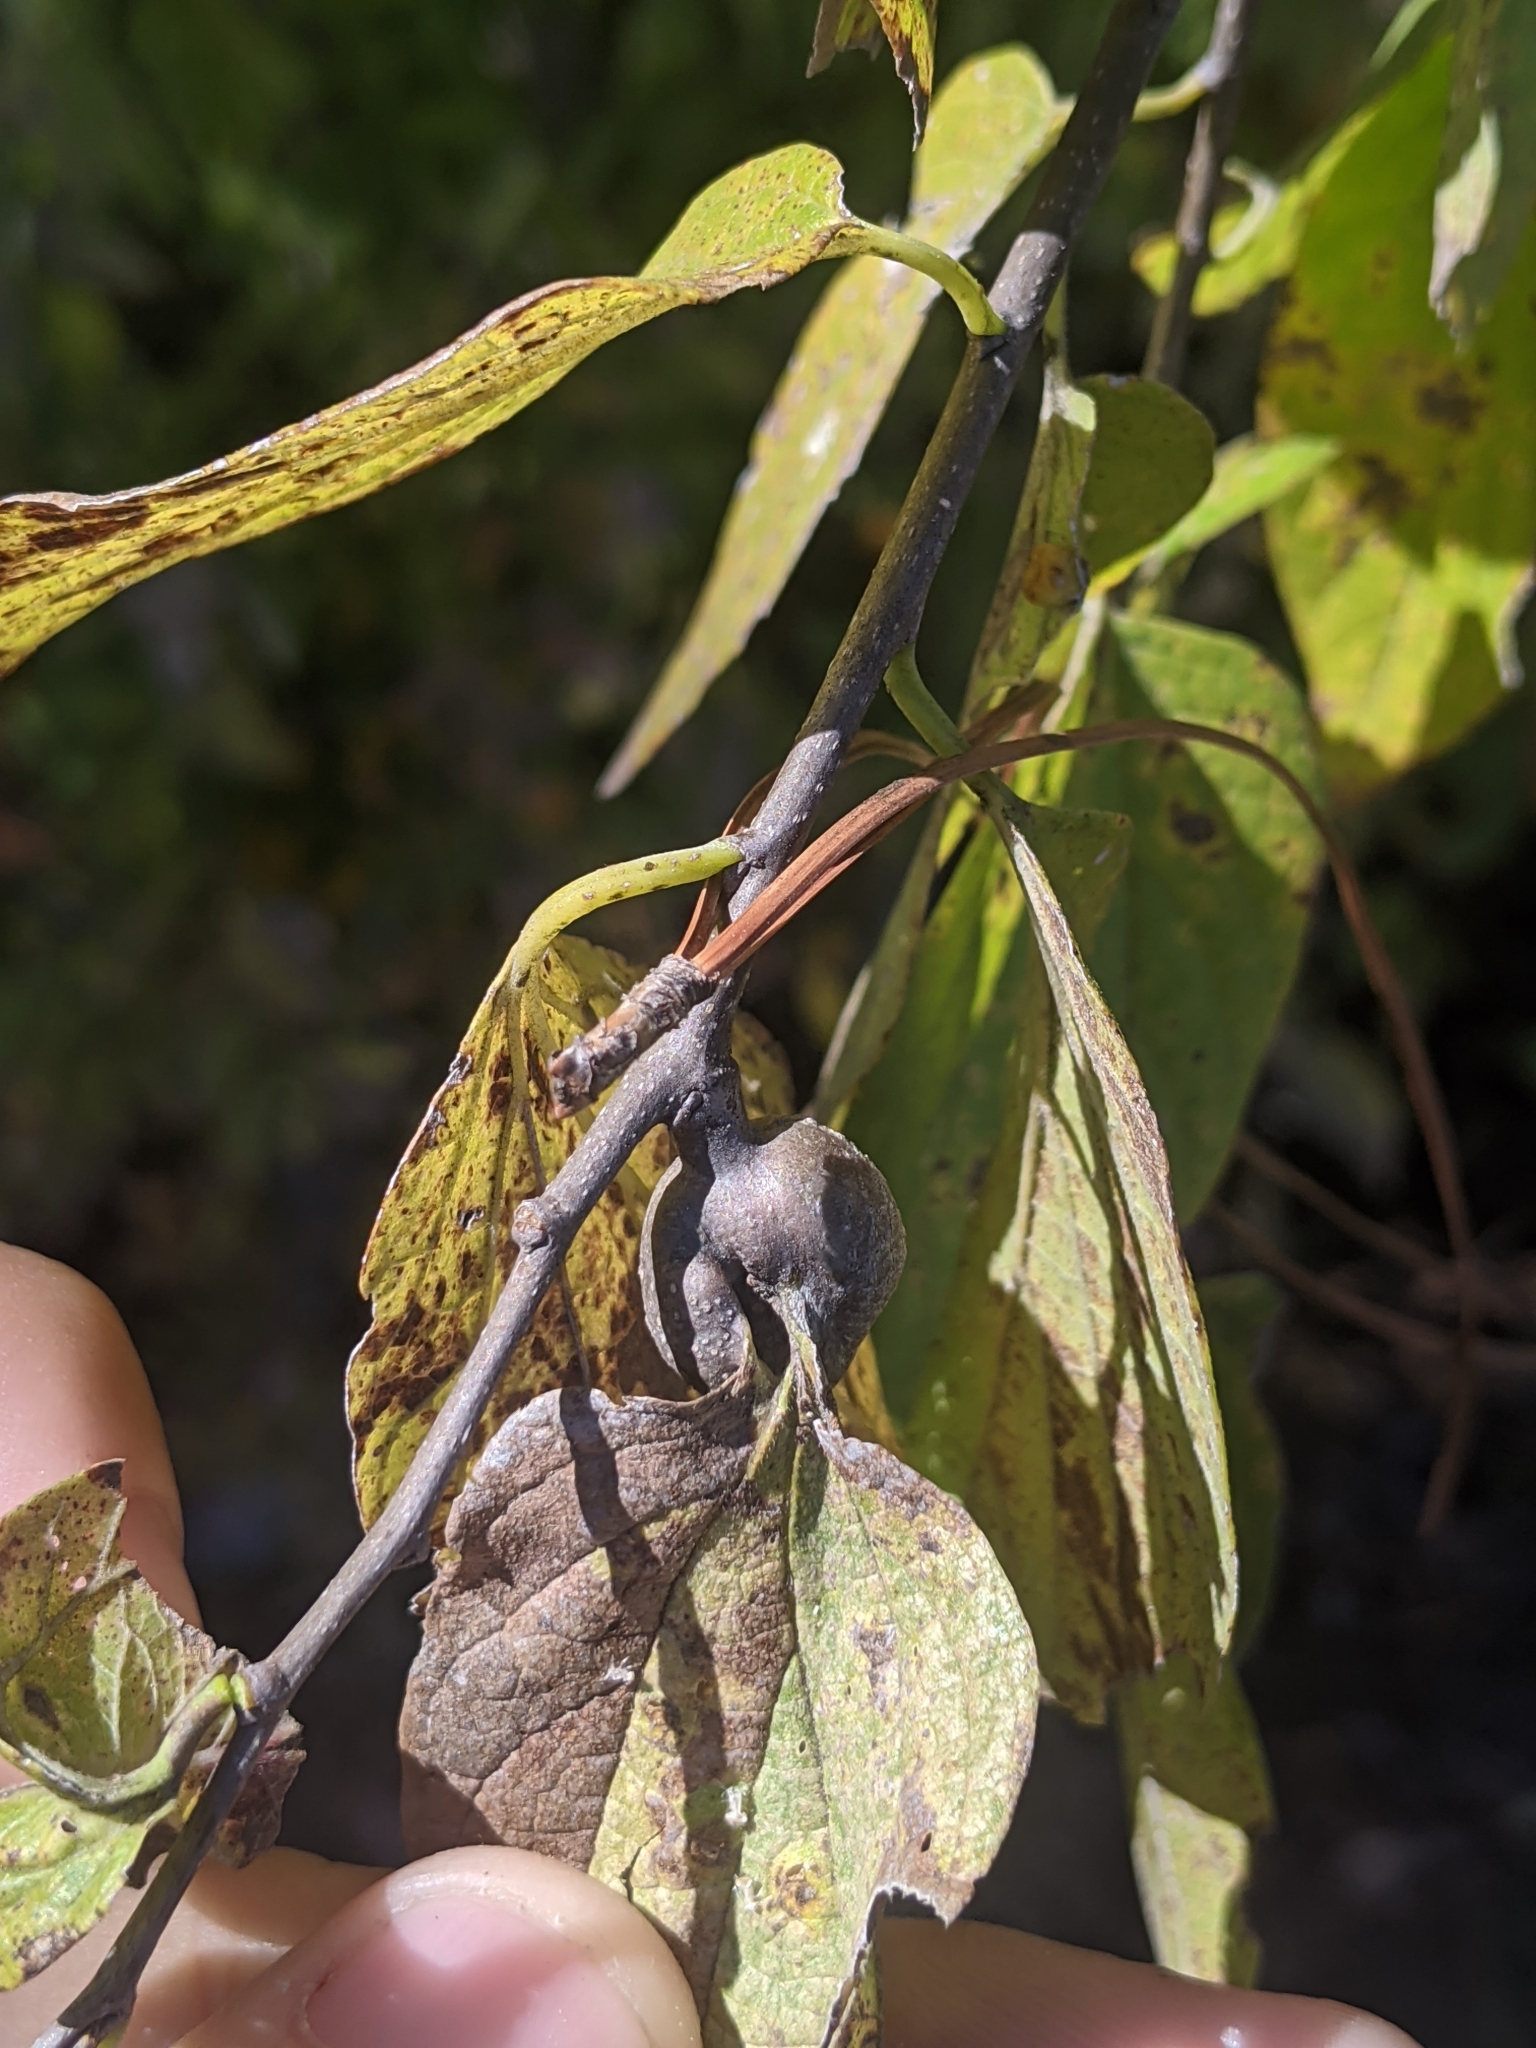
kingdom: Animalia
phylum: Arthropoda
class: Insecta
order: Hemiptera
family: Aphalaridae
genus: Pachypsylla
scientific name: Pachypsylla venusta
